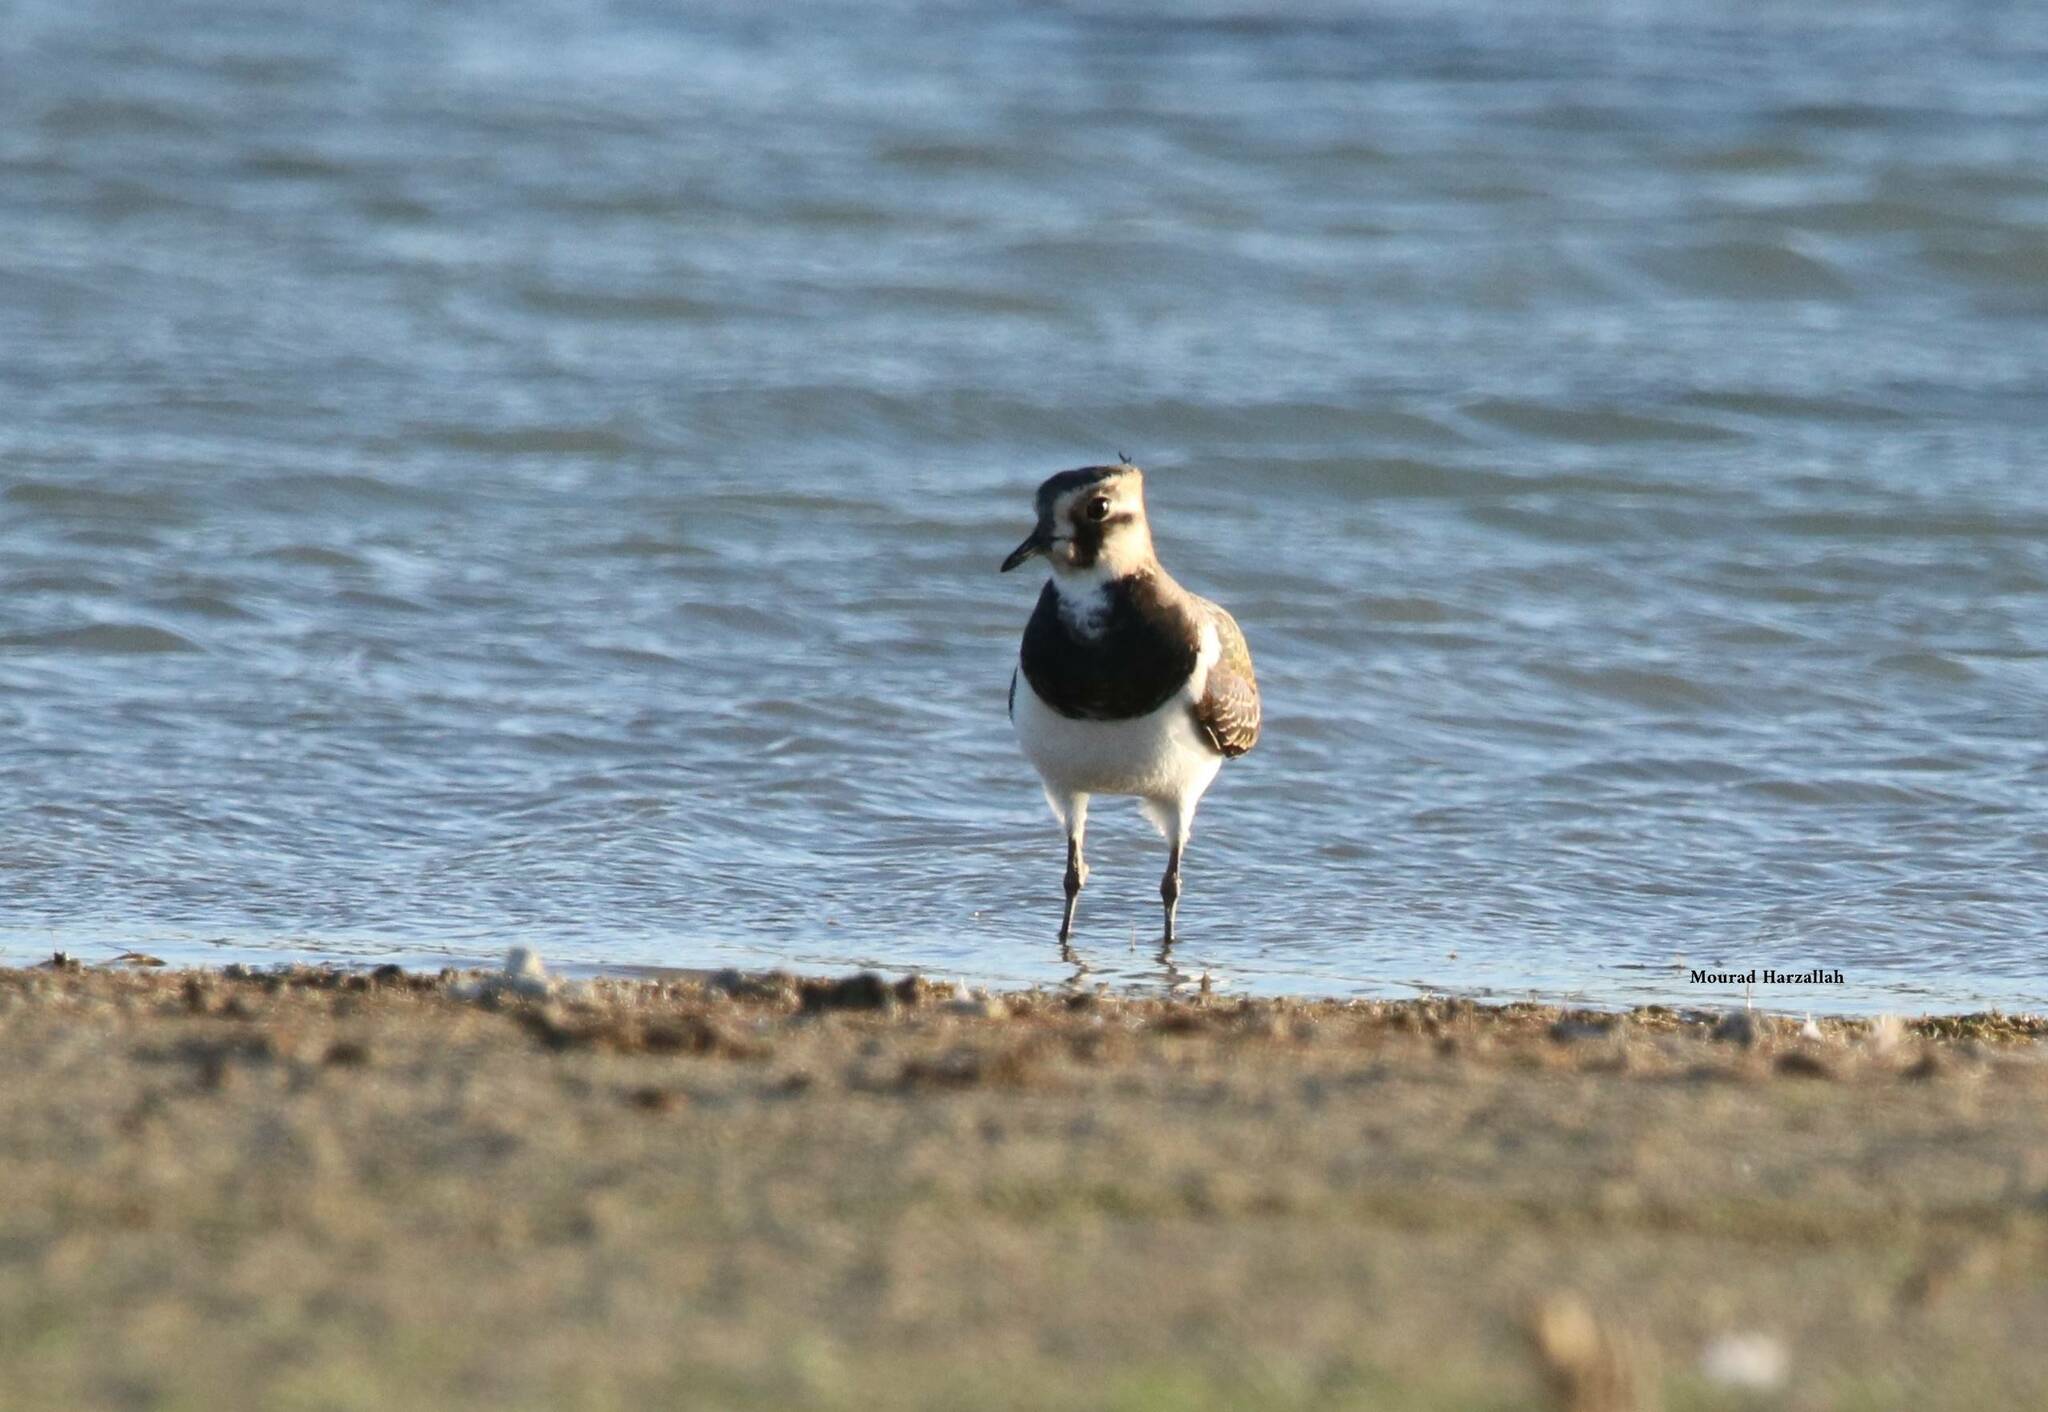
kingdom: Animalia
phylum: Chordata
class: Aves
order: Charadriiformes
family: Charadriidae
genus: Vanellus
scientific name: Vanellus vanellus
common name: Northern lapwing
